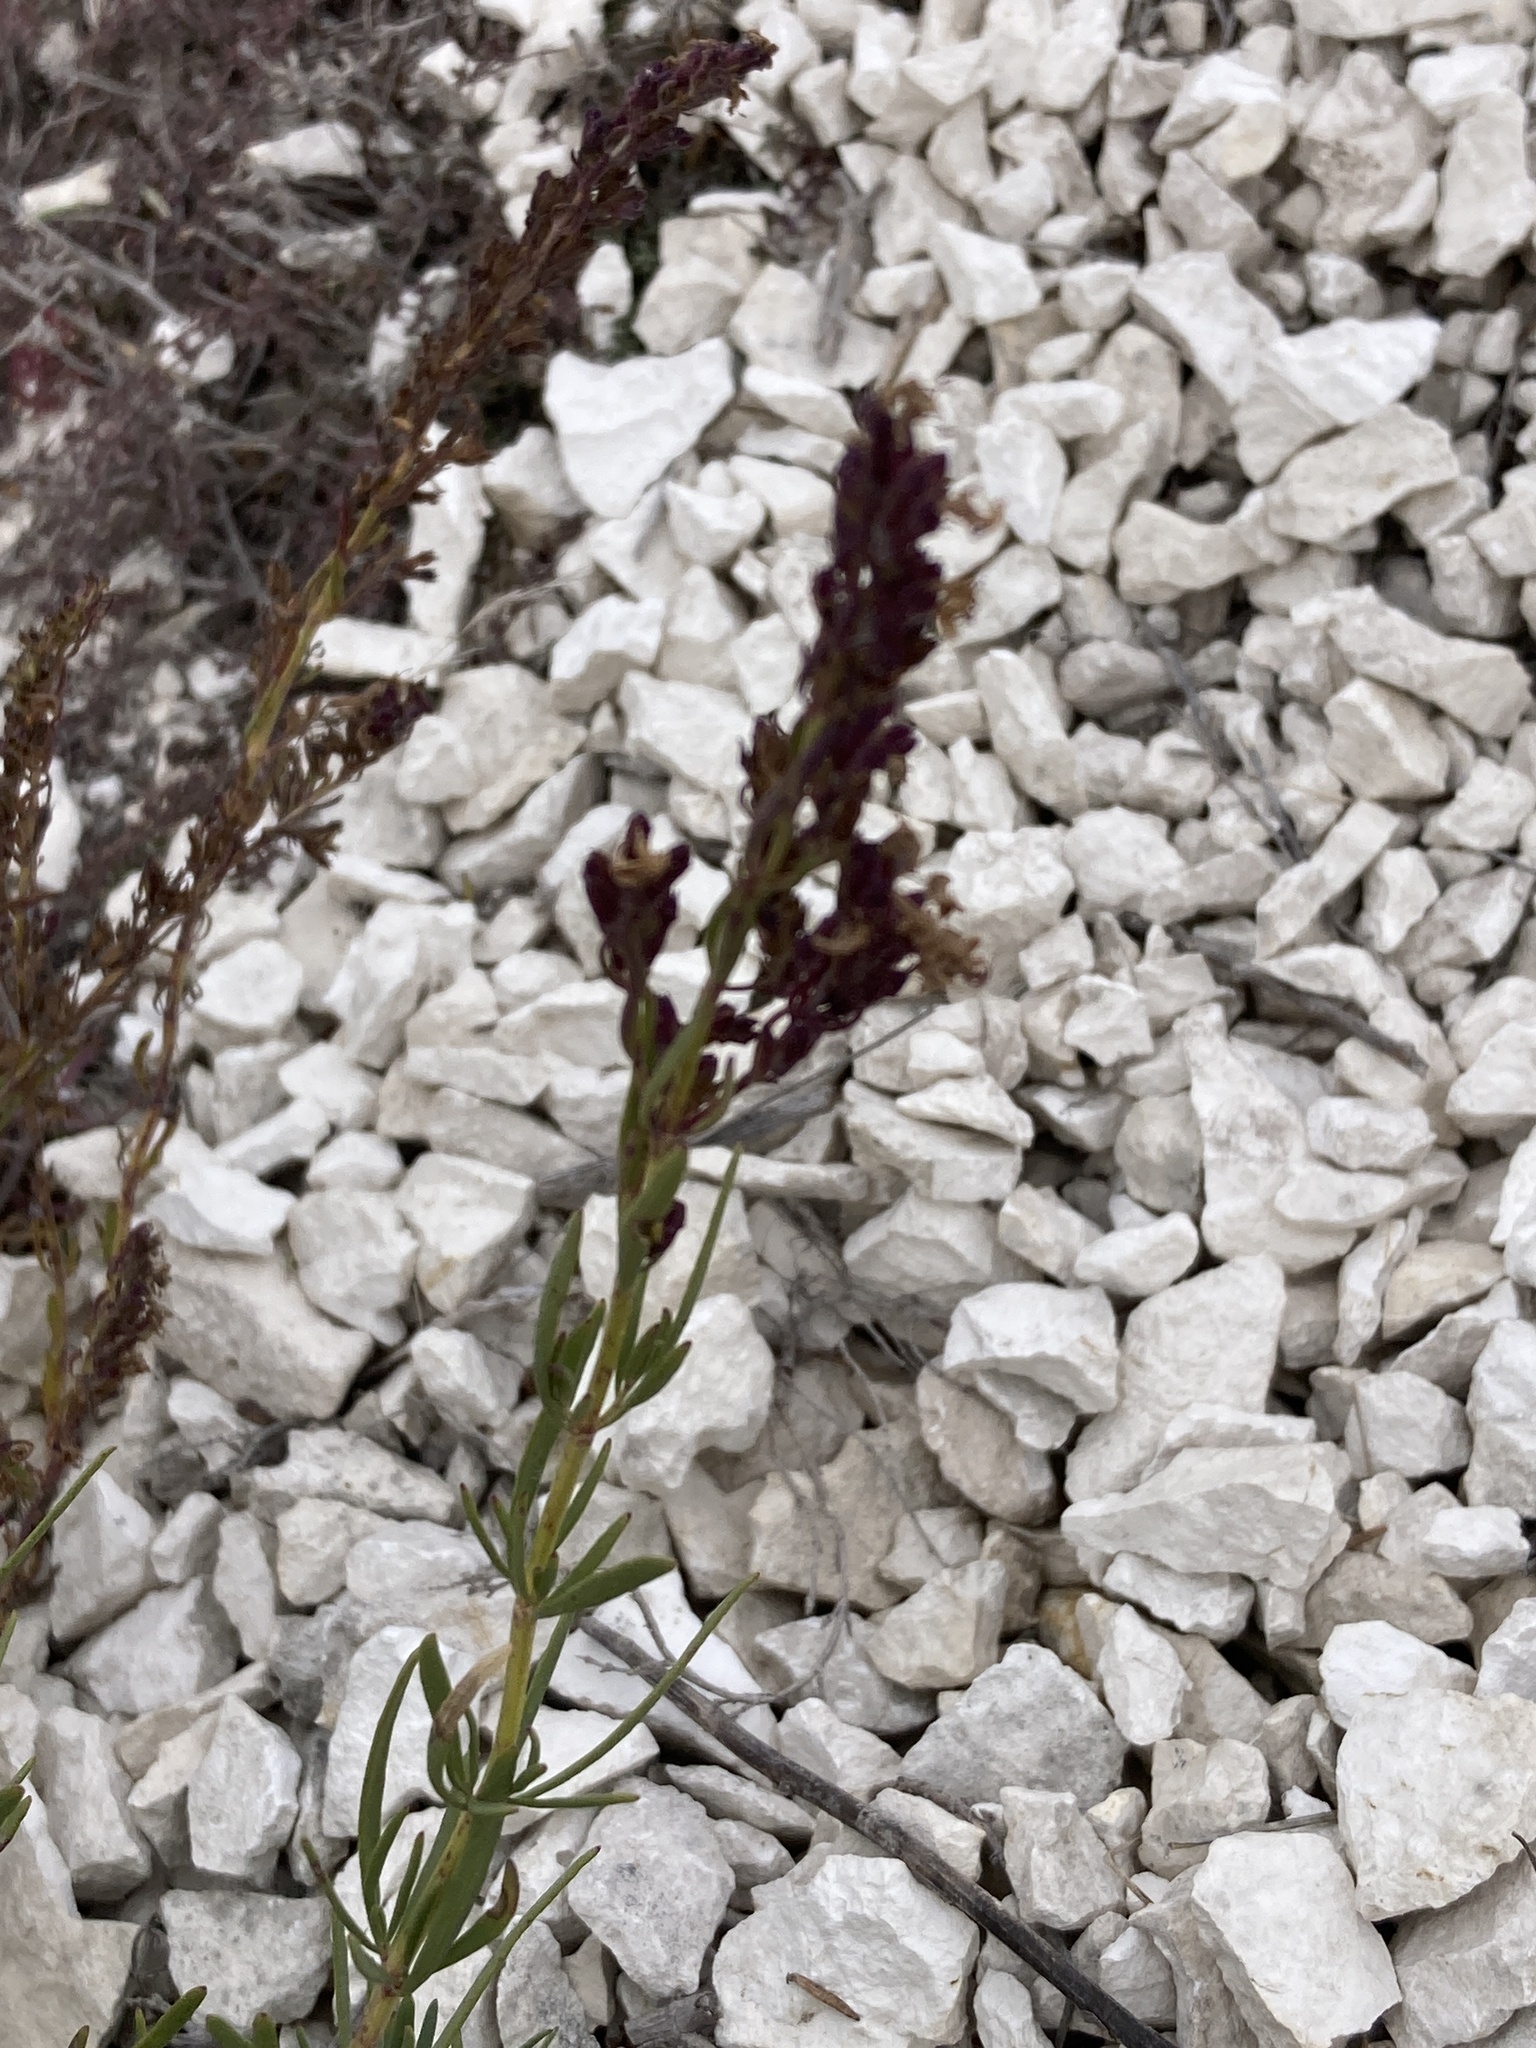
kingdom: Plantae
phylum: Tracheophyta
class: Magnoliopsida
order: Lamiales
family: Lamiaceae
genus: Hyssopus
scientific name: Hyssopus officinalis
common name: Hyssop
